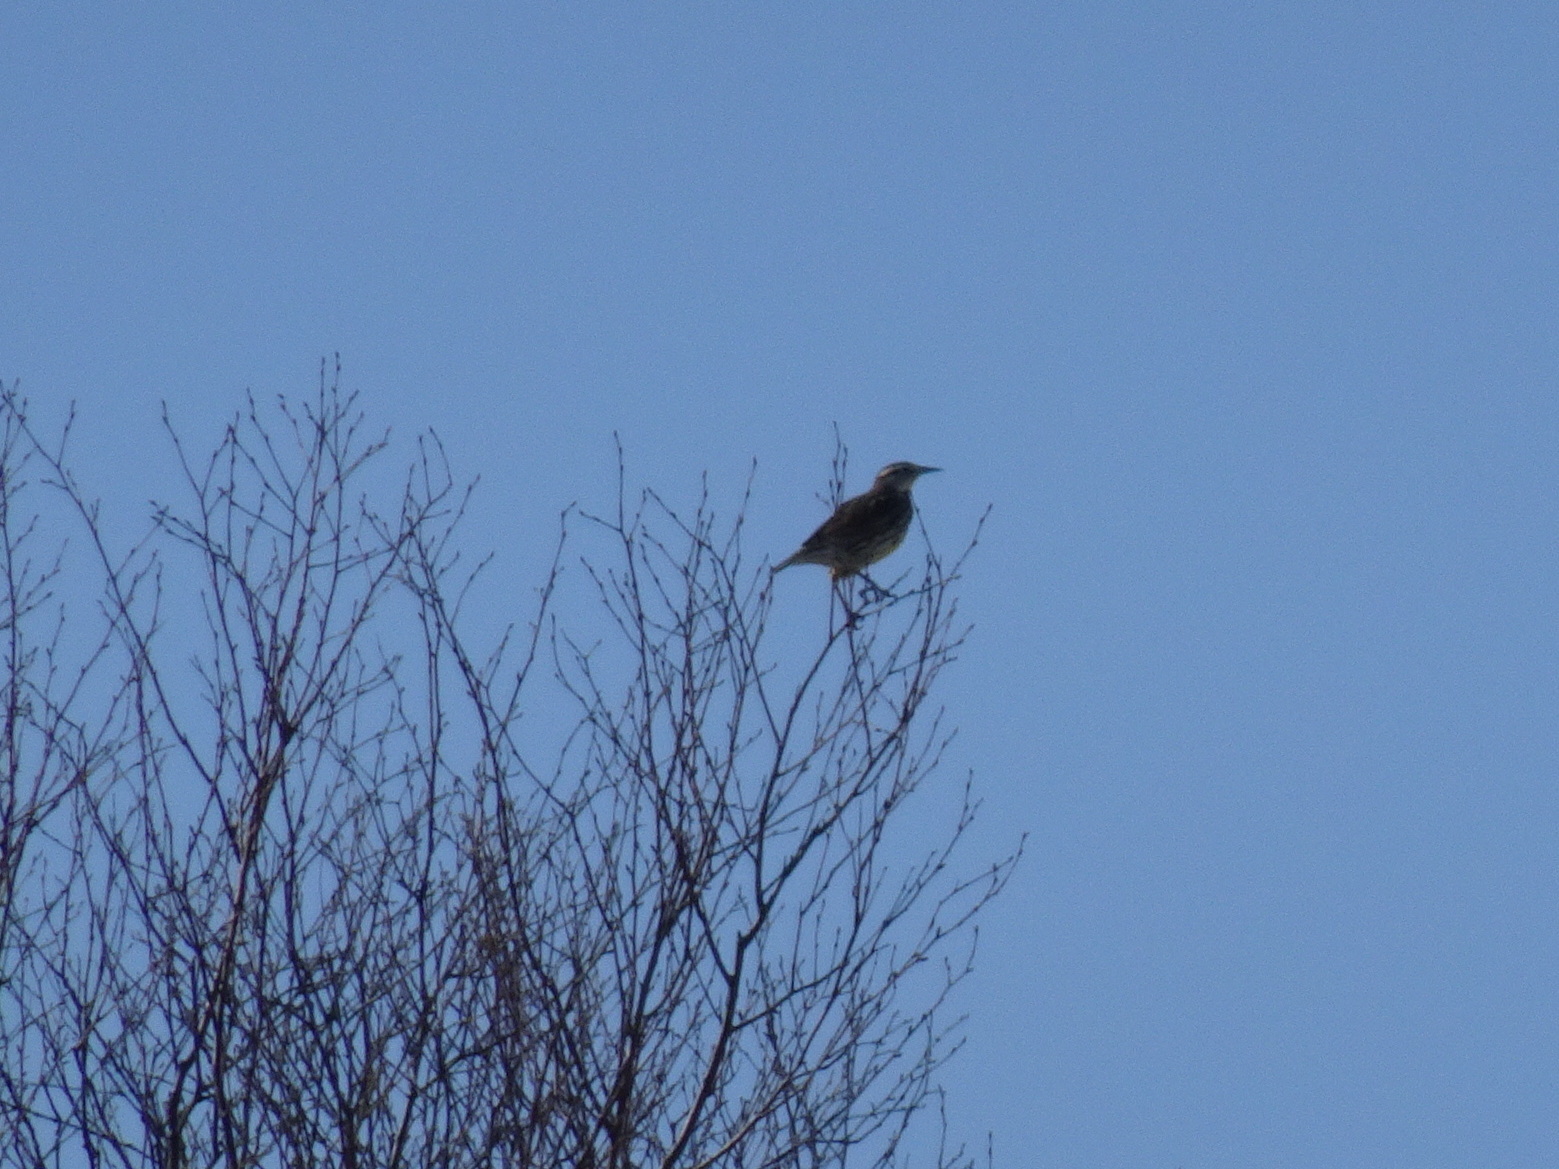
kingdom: Animalia
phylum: Chordata
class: Aves
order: Passeriformes
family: Icteridae
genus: Sturnella
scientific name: Sturnella magna
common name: Eastern meadowlark
